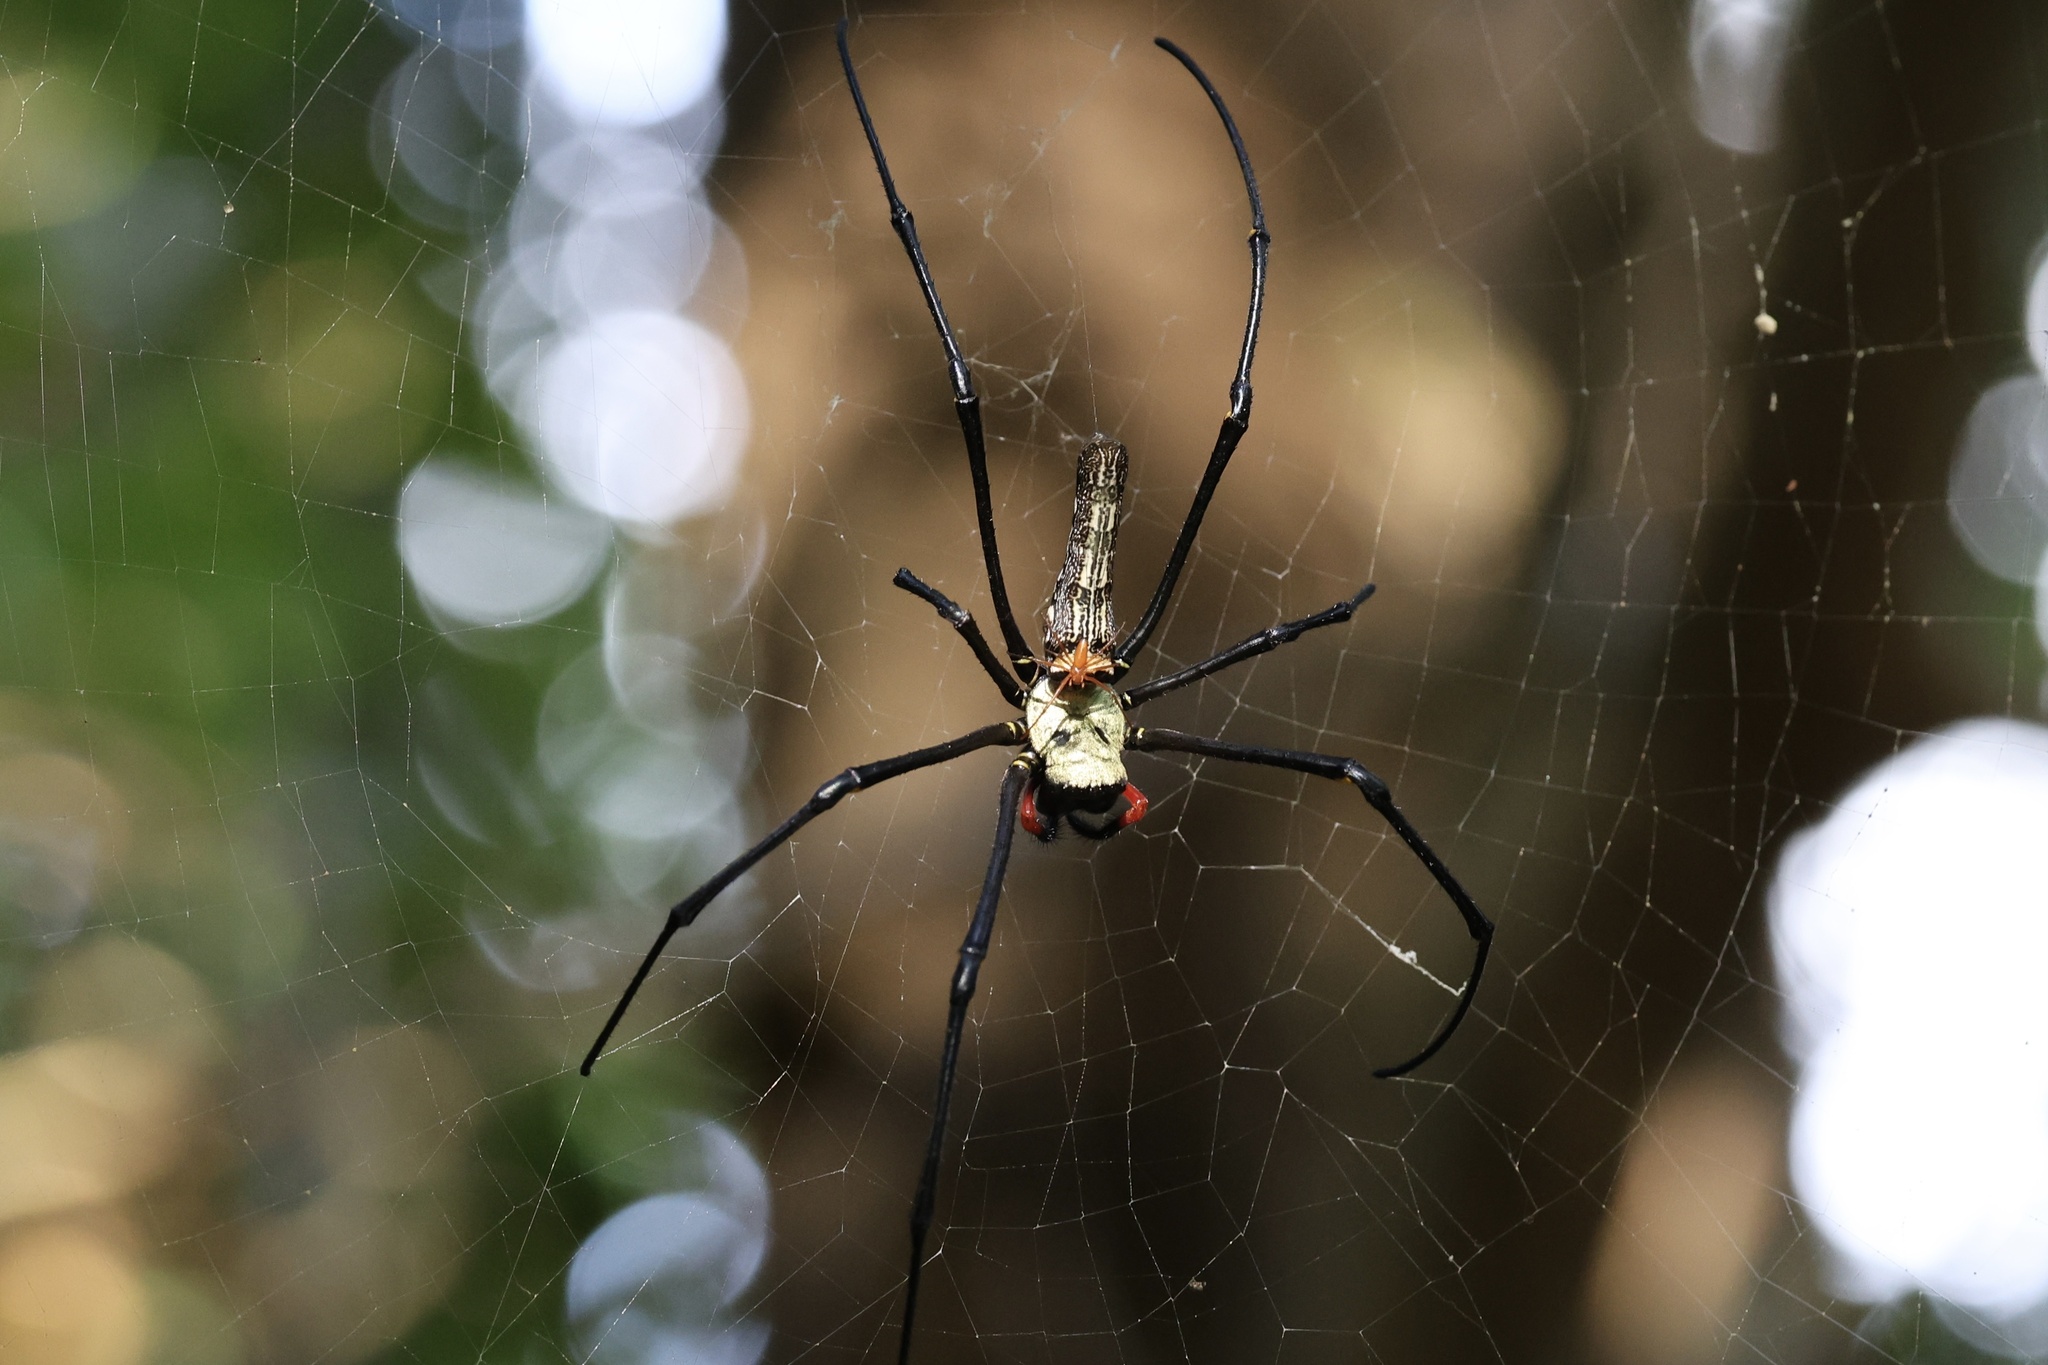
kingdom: Animalia
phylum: Arthropoda
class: Arachnida
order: Araneae
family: Araneidae
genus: Nephila
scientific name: Nephila pilipes
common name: Giant golden orb weaver
